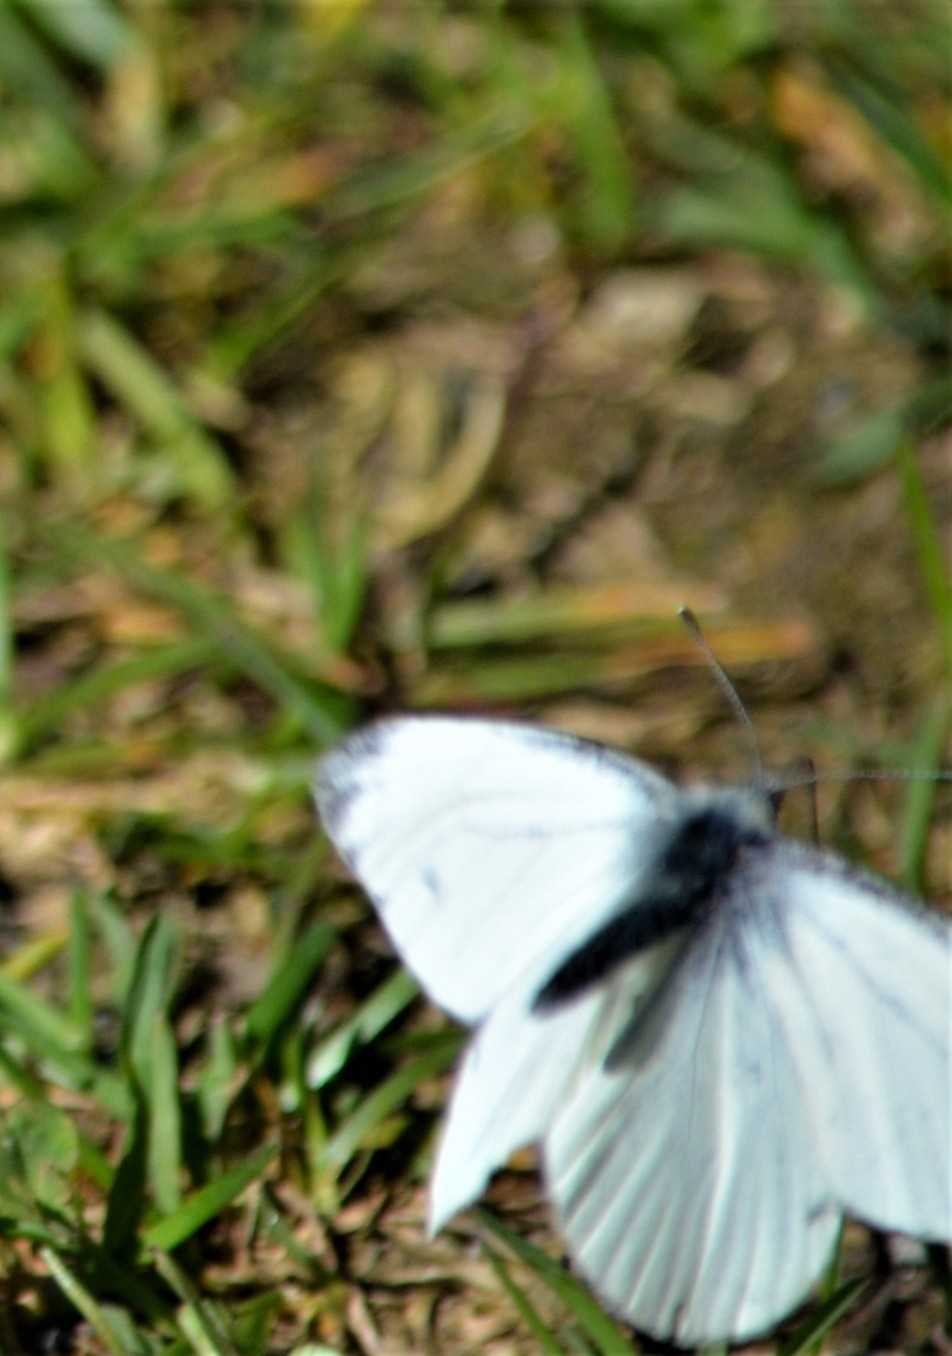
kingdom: Animalia
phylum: Arthropoda
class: Insecta
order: Lepidoptera
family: Pieridae
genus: Pieris
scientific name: Pieris napi
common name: Green-veined white
